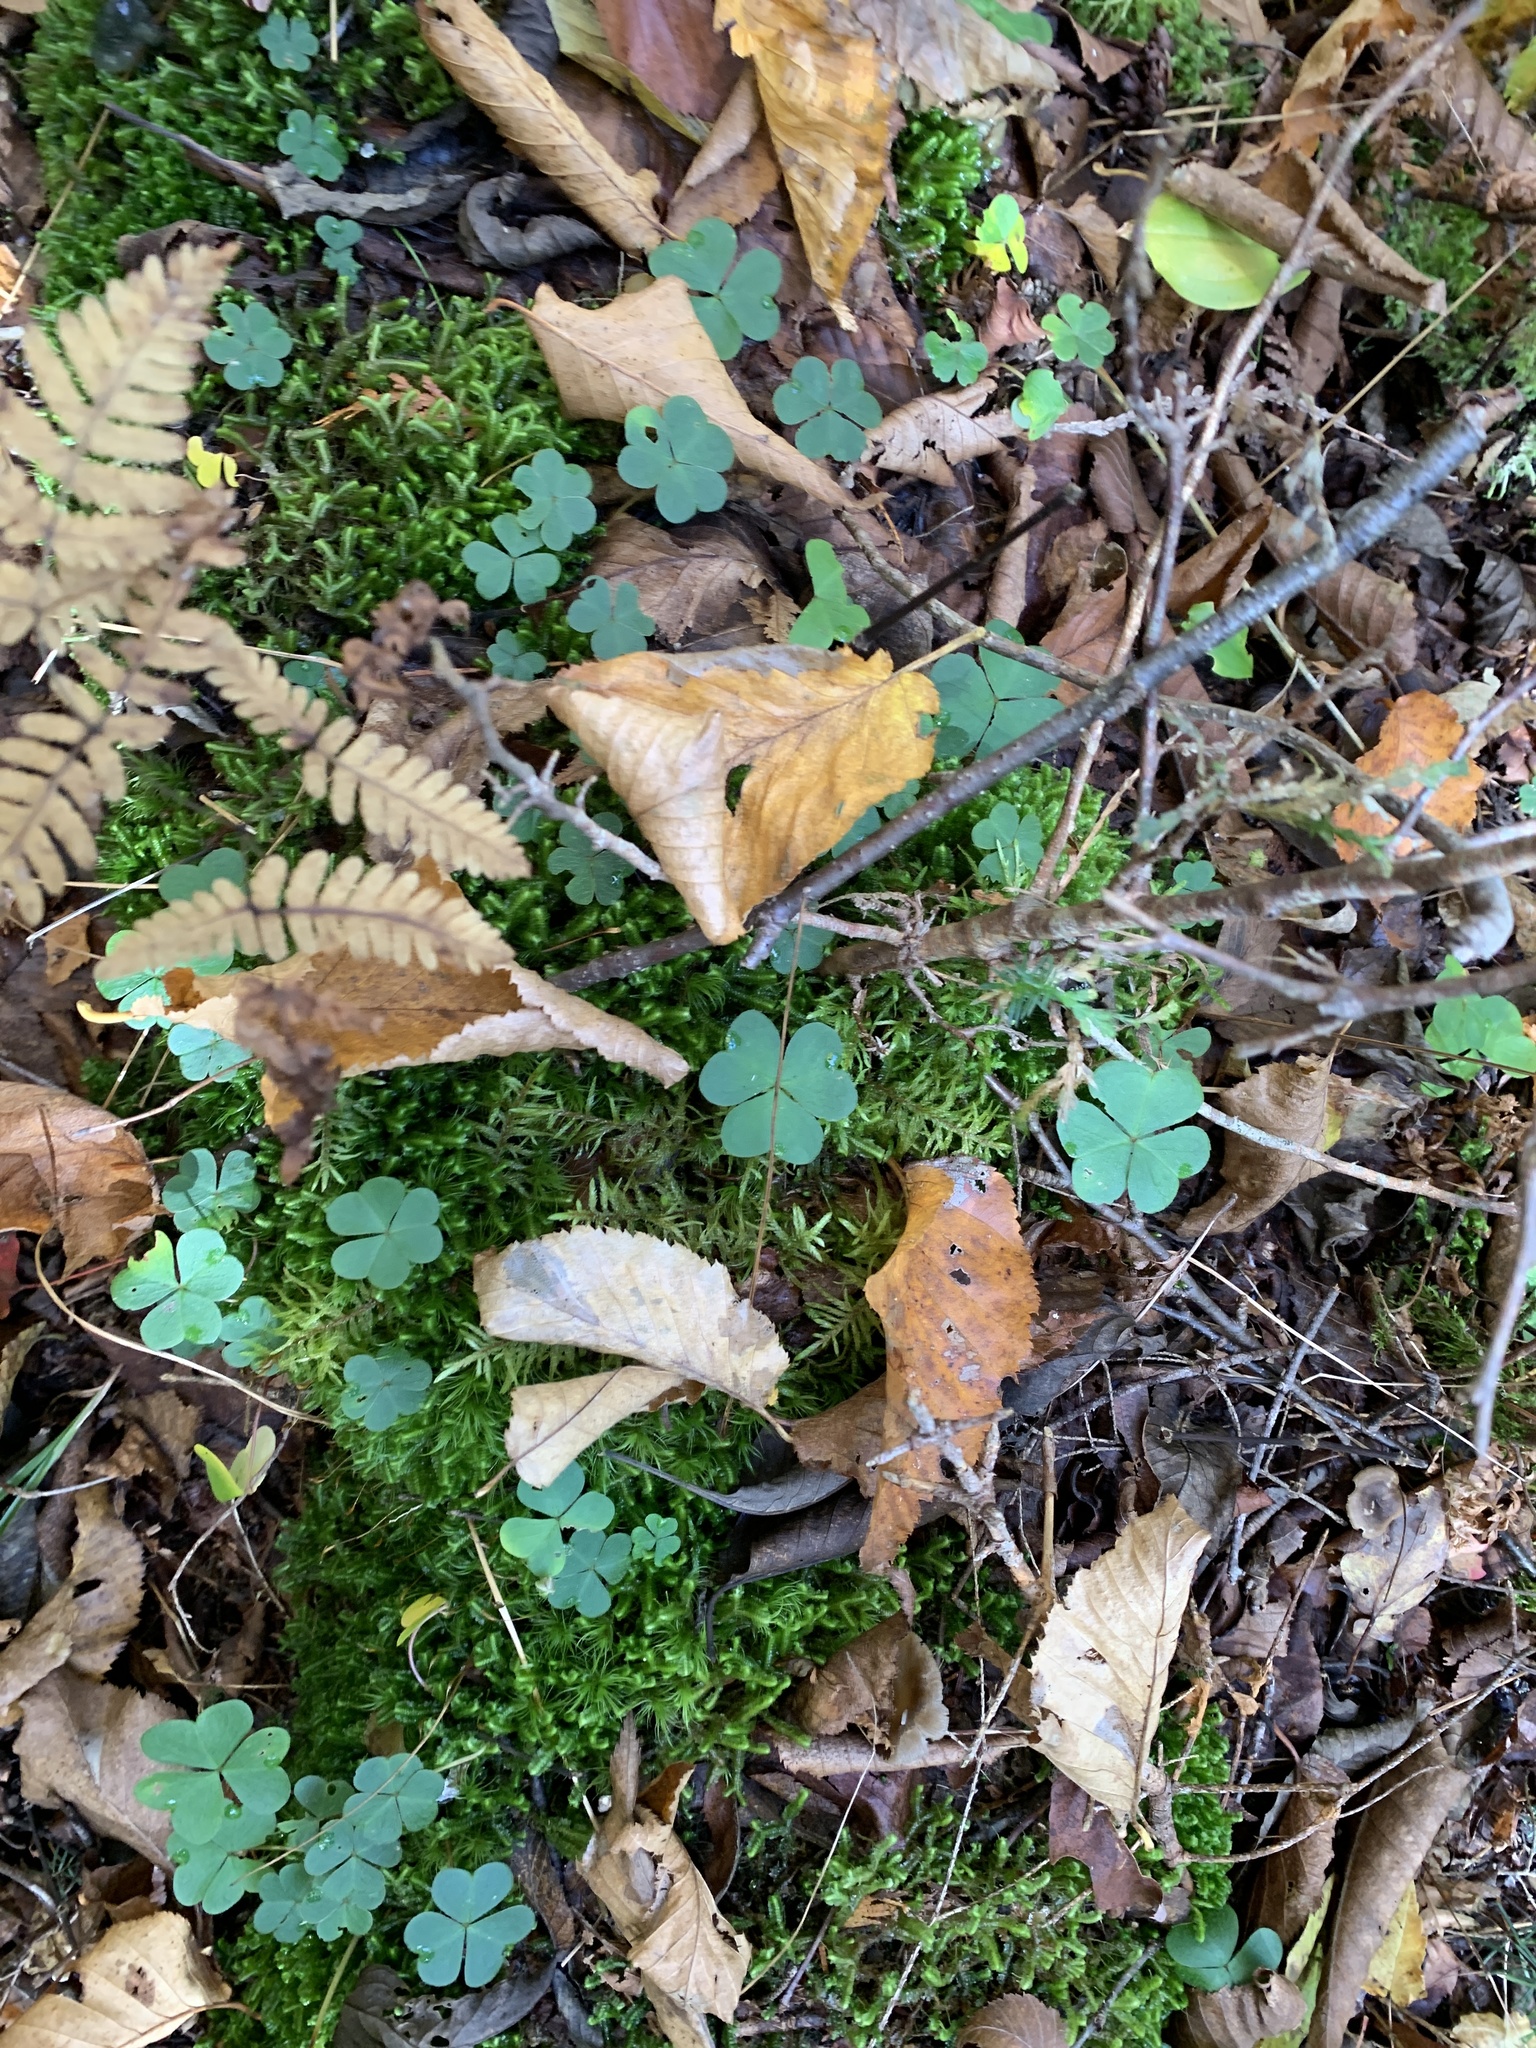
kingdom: Plantae
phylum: Tracheophyta
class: Magnoliopsida
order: Oxalidales
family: Oxalidaceae
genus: Oxalis
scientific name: Oxalis montana
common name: American wood-sorrel
